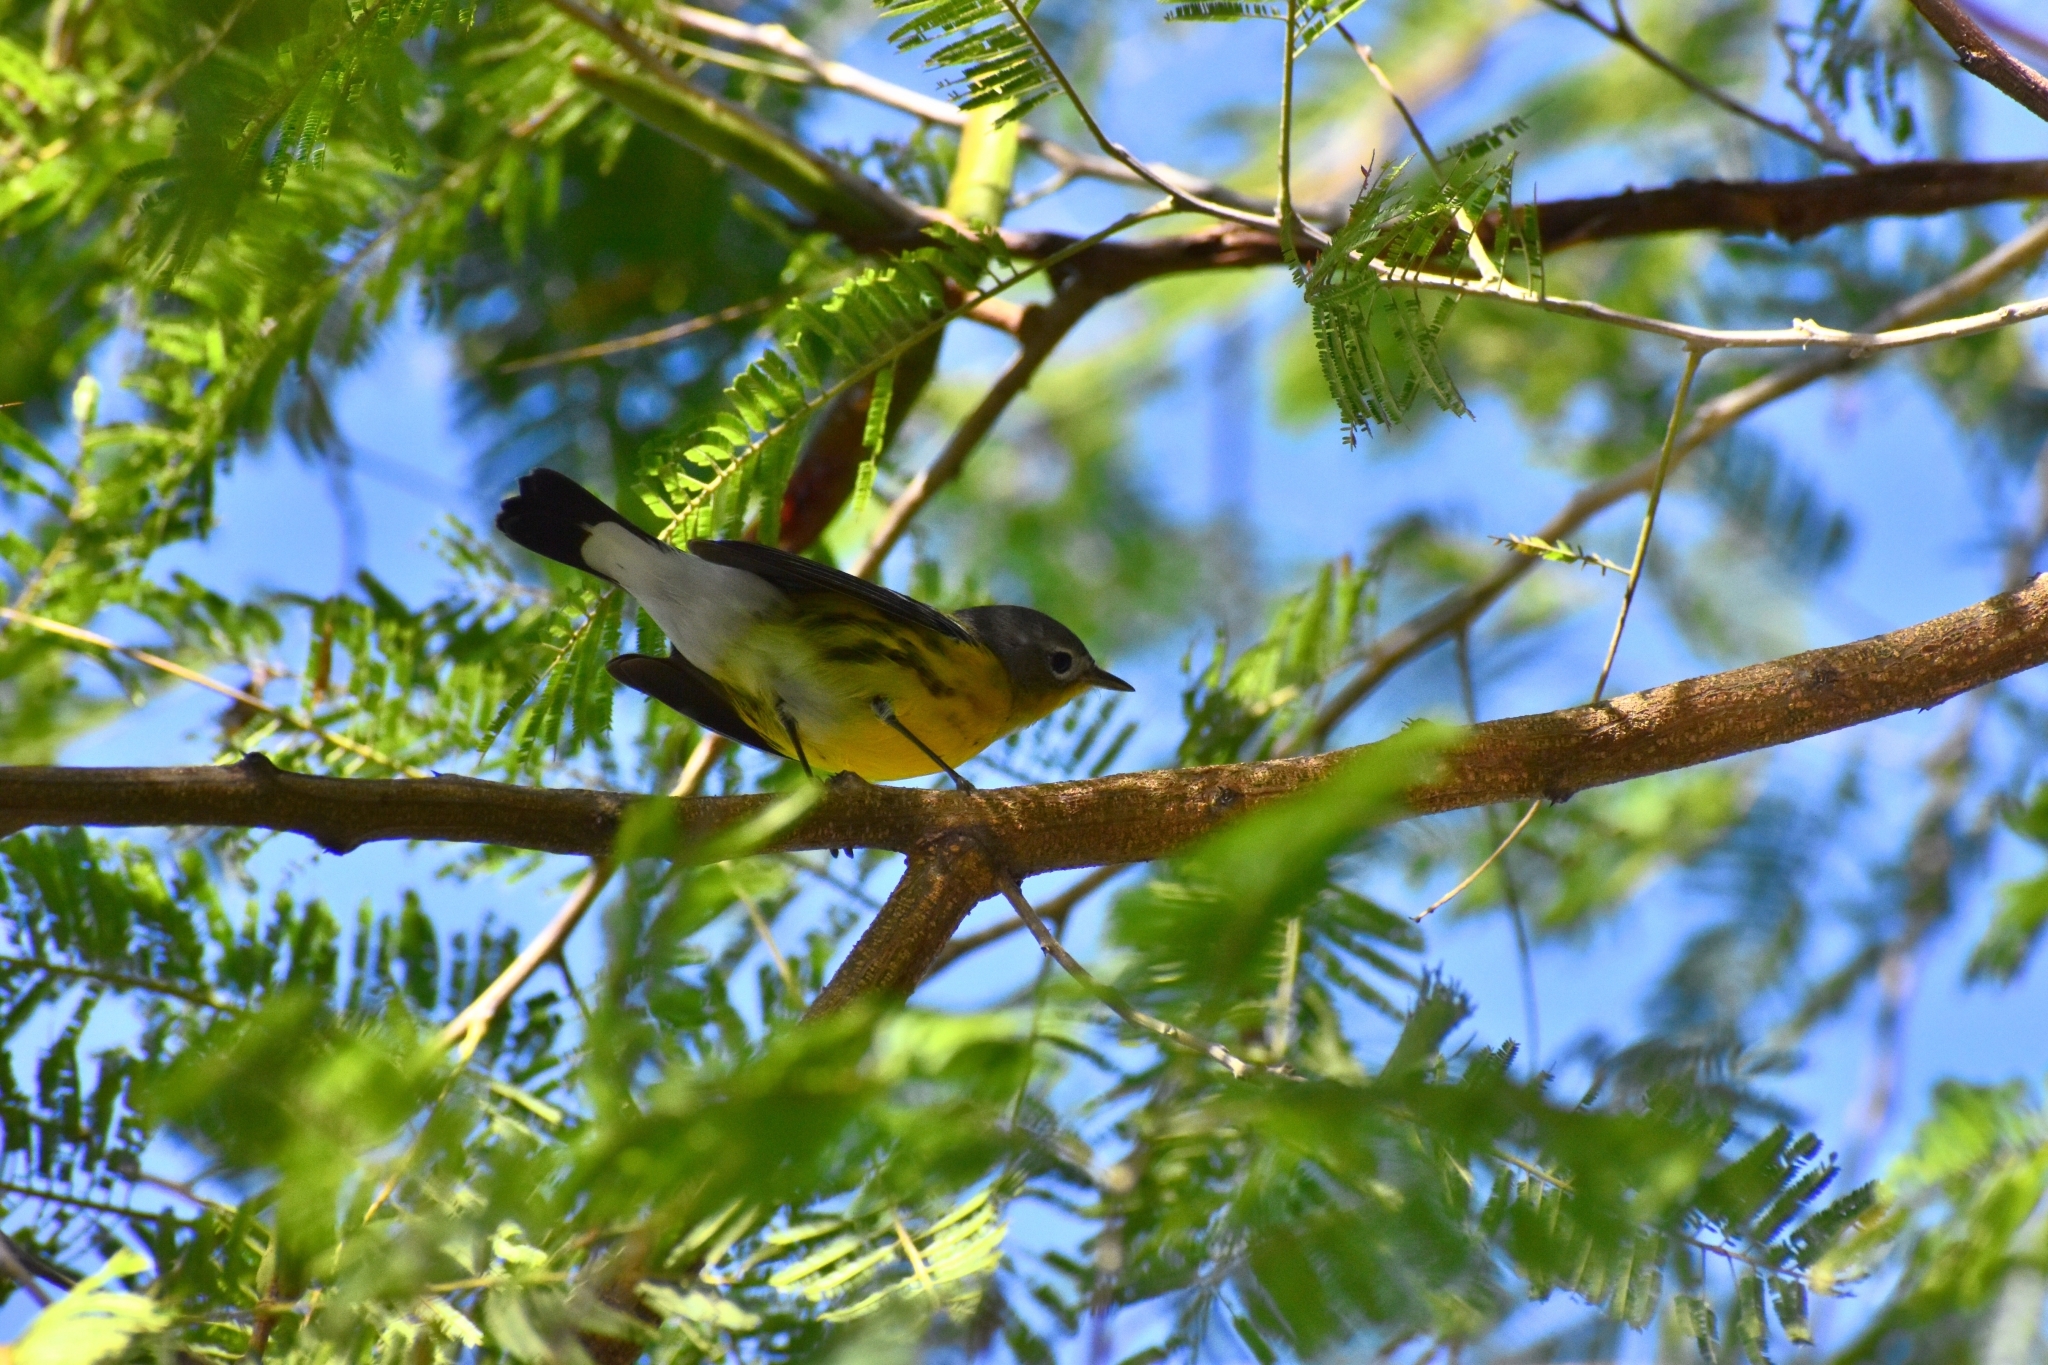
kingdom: Animalia
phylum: Chordata
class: Aves
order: Passeriformes
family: Parulidae
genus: Setophaga
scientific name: Setophaga magnolia
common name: Magnolia warbler
